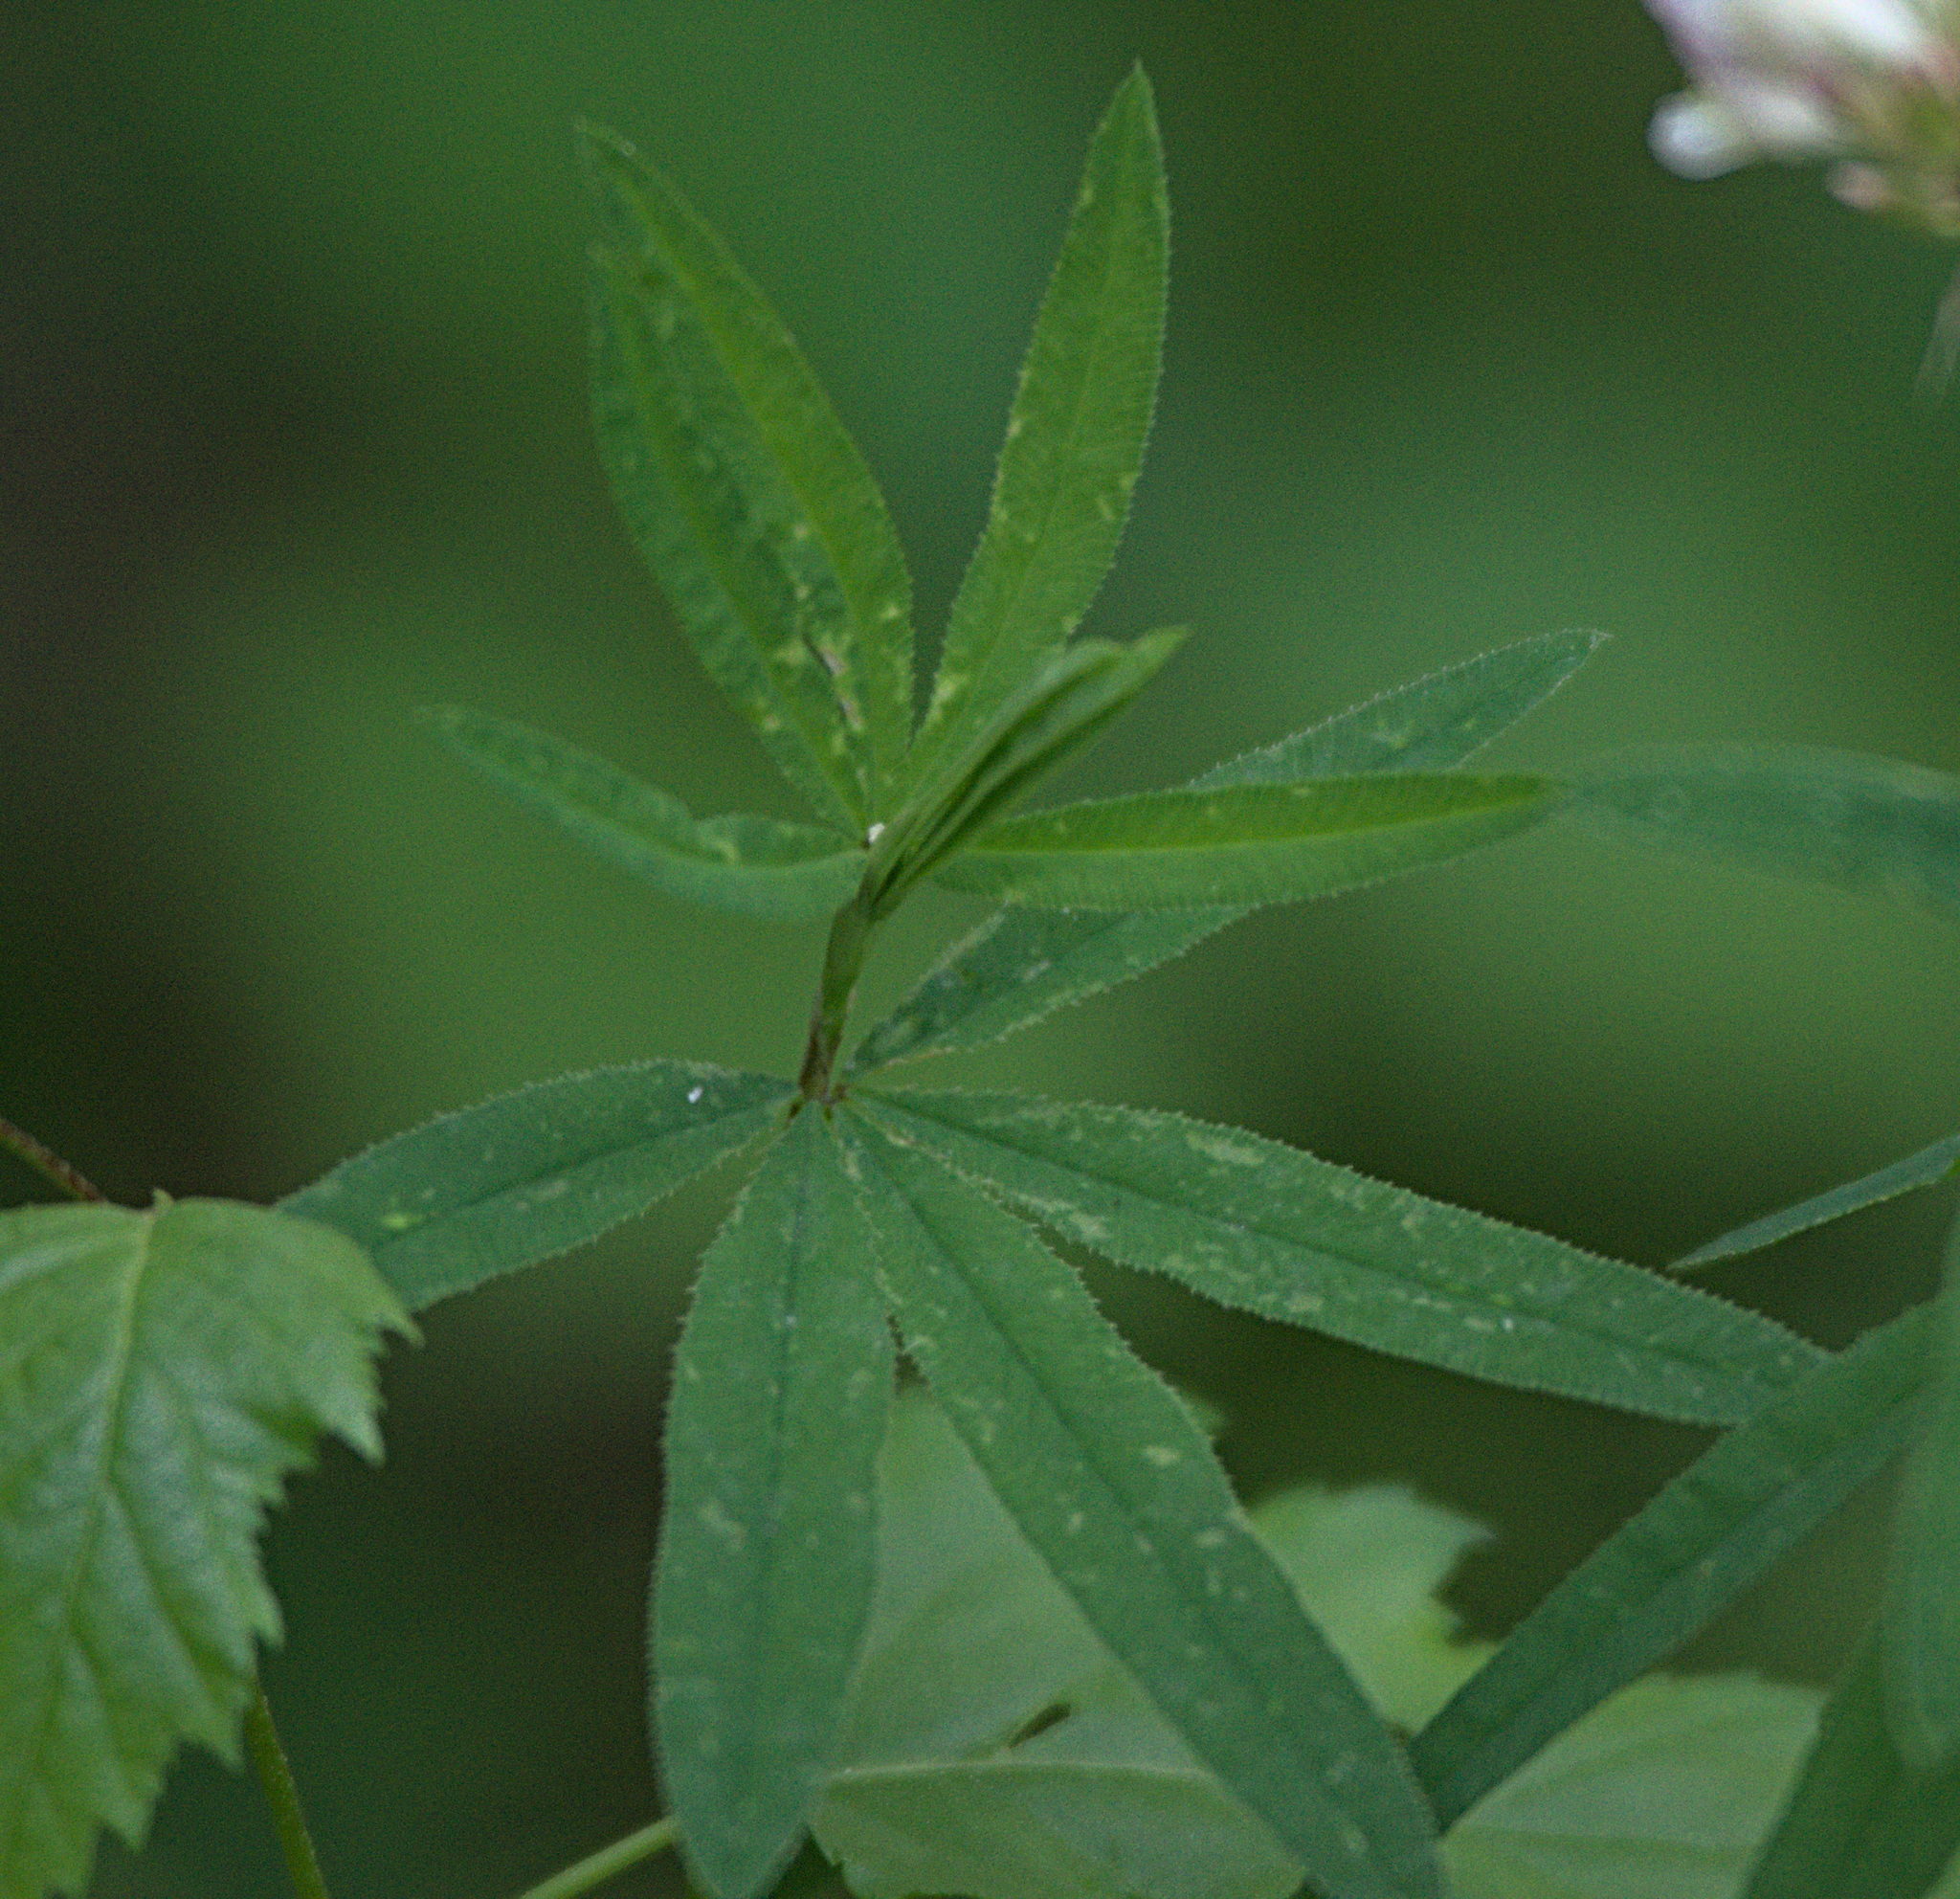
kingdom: Plantae
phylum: Tracheophyta
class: Magnoliopsida
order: Fabales
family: Fabaceae
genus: Trifolium
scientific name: Trifolium lupinaster
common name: Lupine clover
